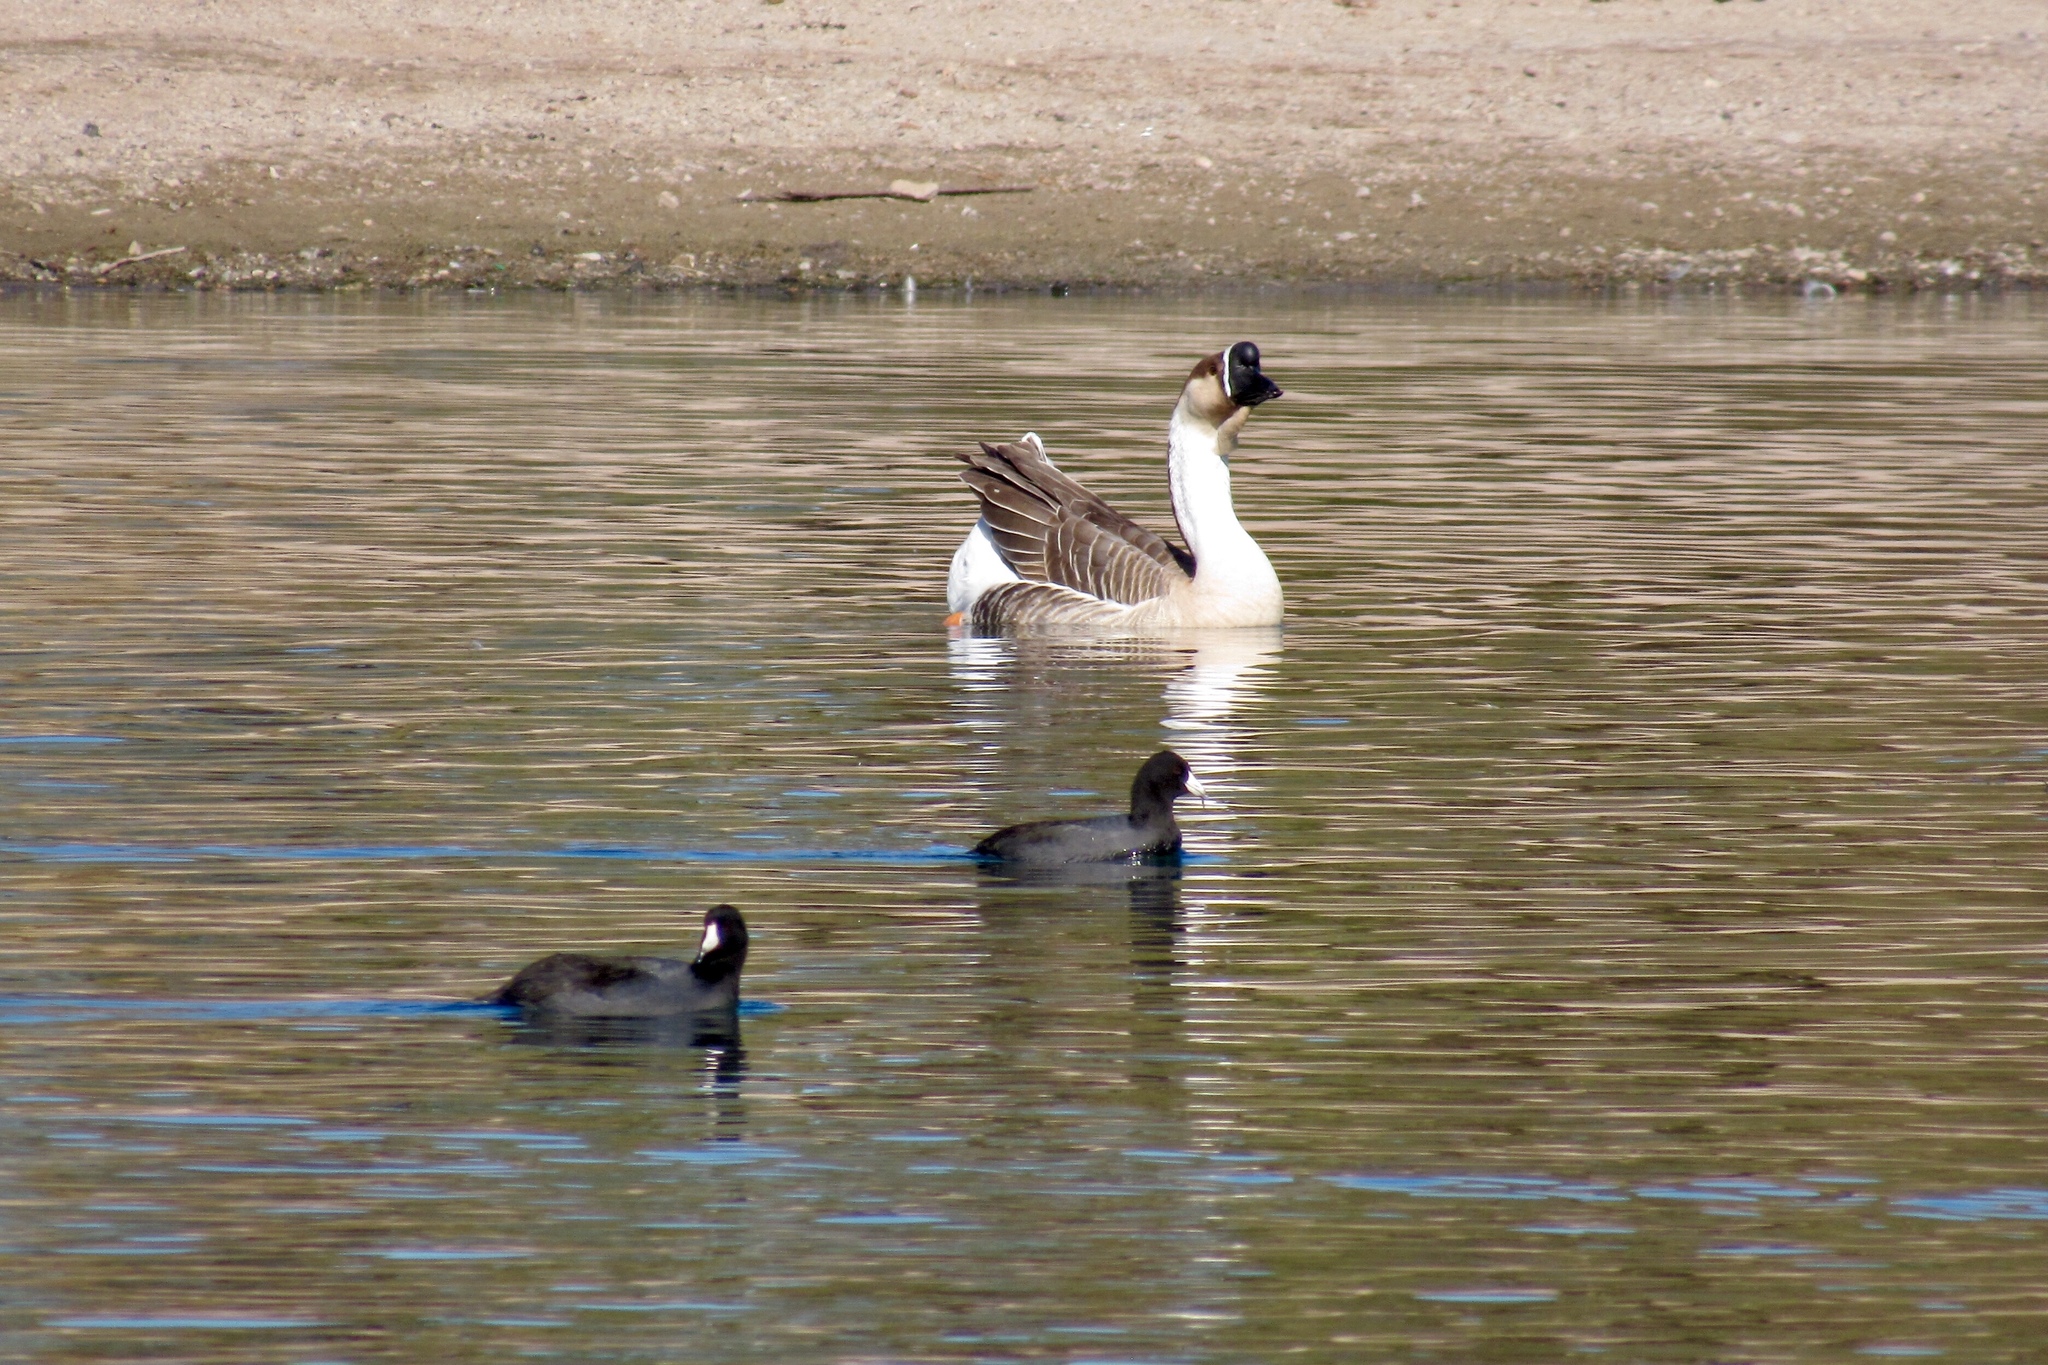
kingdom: Animalia
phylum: Chordata
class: Aves
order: Anseriformes
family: Anatidae
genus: Anser
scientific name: Anser cygnoides
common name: Swan goose
